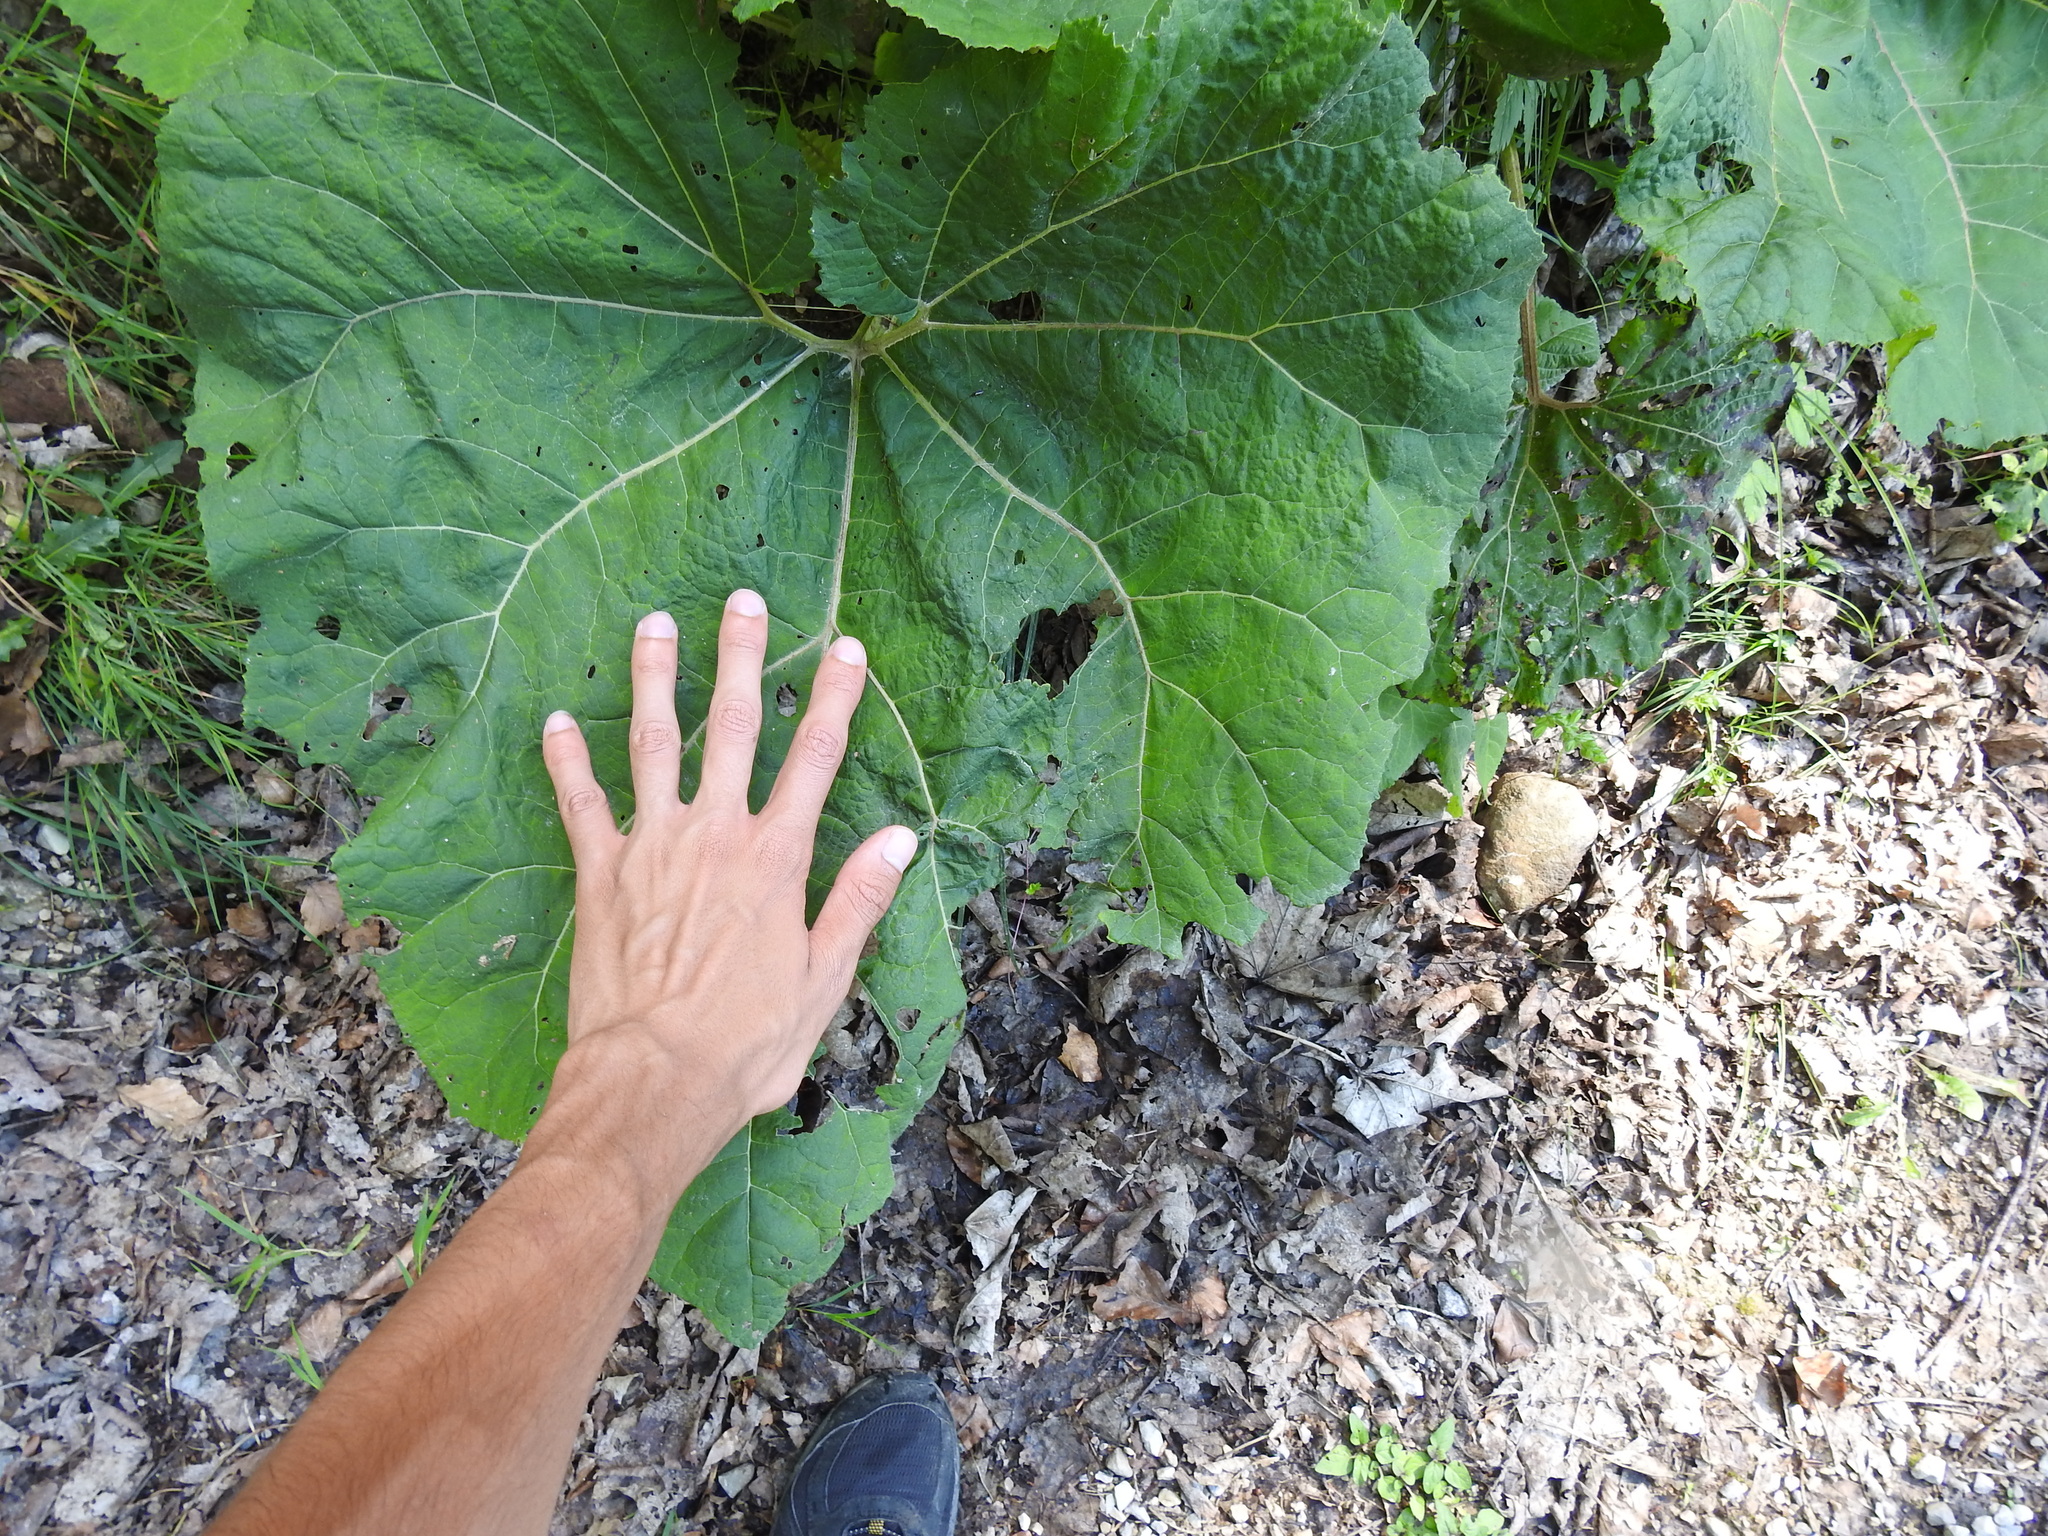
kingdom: Plantae
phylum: Tracheophyta
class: Magnoliopsida
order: Asterales
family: Asteraceae
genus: Petasites
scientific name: Petasites hybridus
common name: Butterbur
